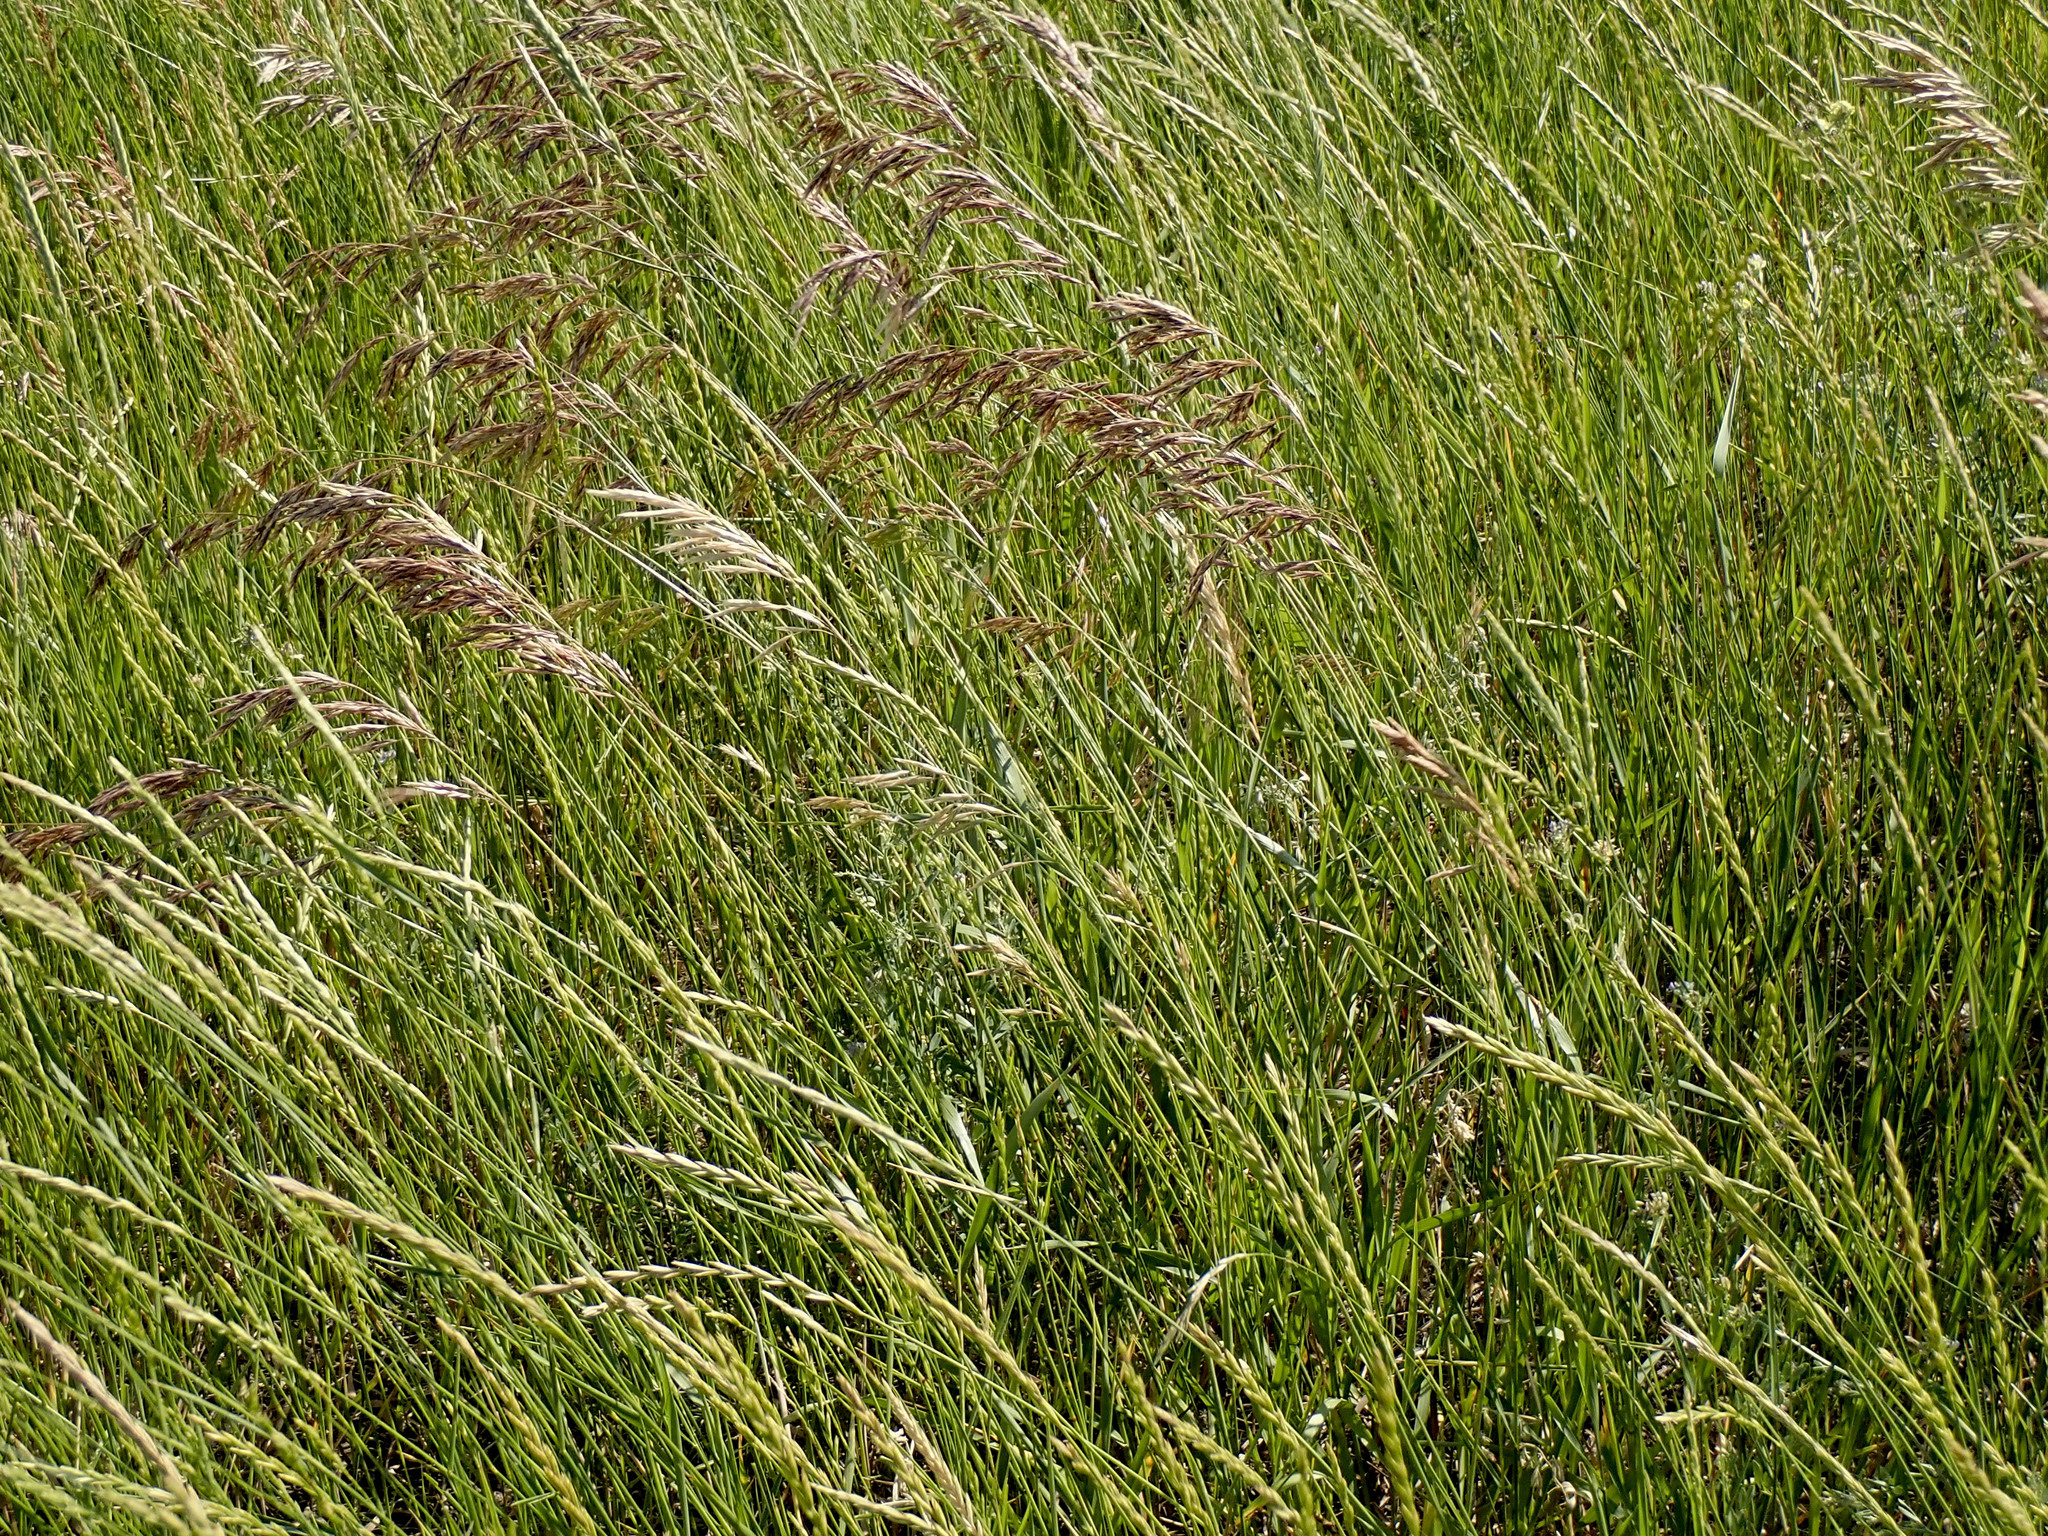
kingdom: Plantae
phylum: Tracheophyta
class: Liliopsida
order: Poales
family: Poaceae
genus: Bromus
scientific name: Bromus inermis
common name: Smooth brome
